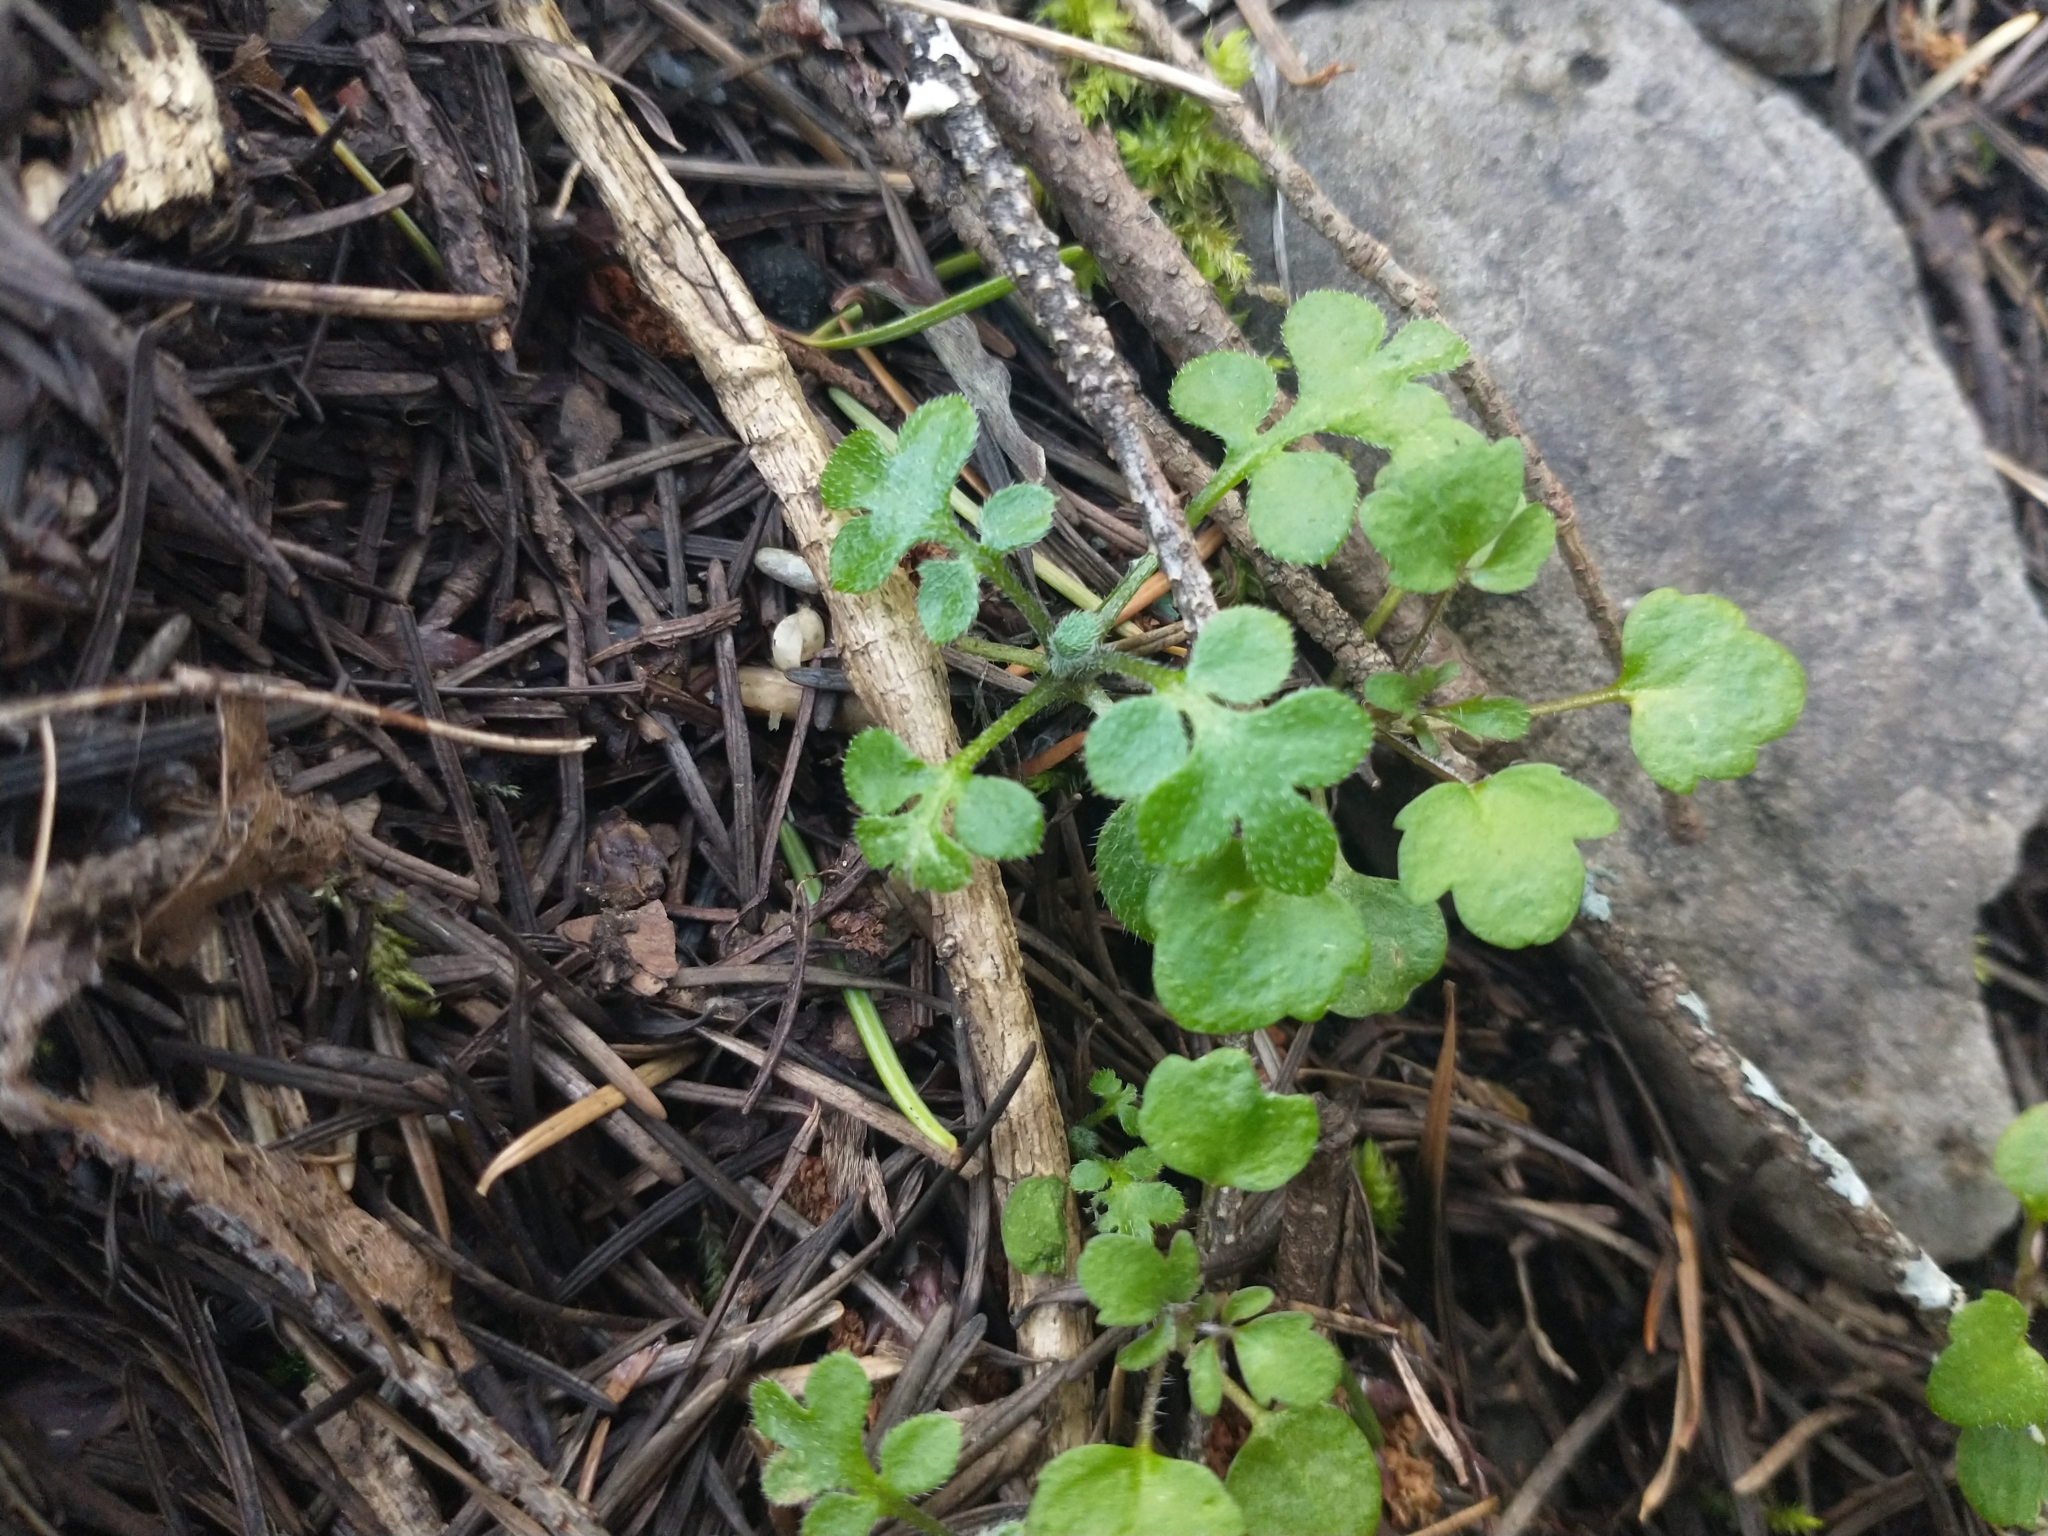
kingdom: Plantae
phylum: Tracheophyta
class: Magnoliopsida
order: Boraginales
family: Hydrophyllaceae
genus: Nemophila
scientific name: Nemophila parviflora
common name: Small-flowered baby-blue-eyes
